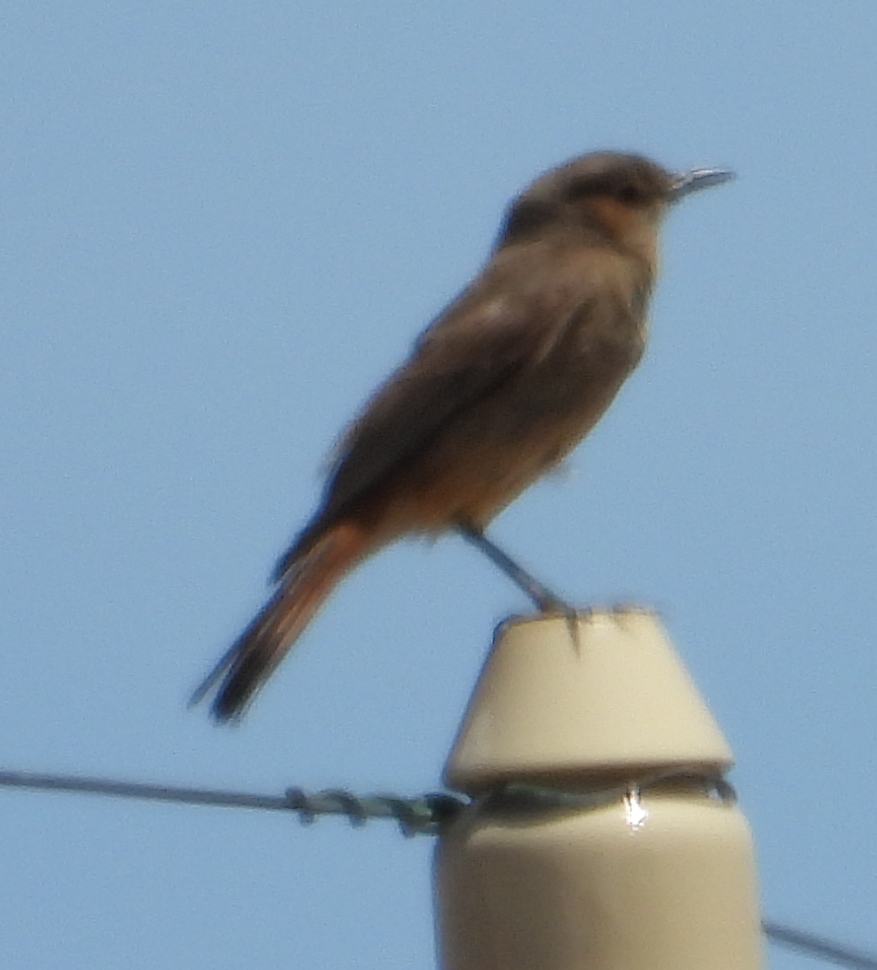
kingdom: Animalia
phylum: Chordata
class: Aves
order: Passeriformes
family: Muscicapidae
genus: Oenanthe
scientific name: Oenanthe familiaris
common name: Familiar chat
